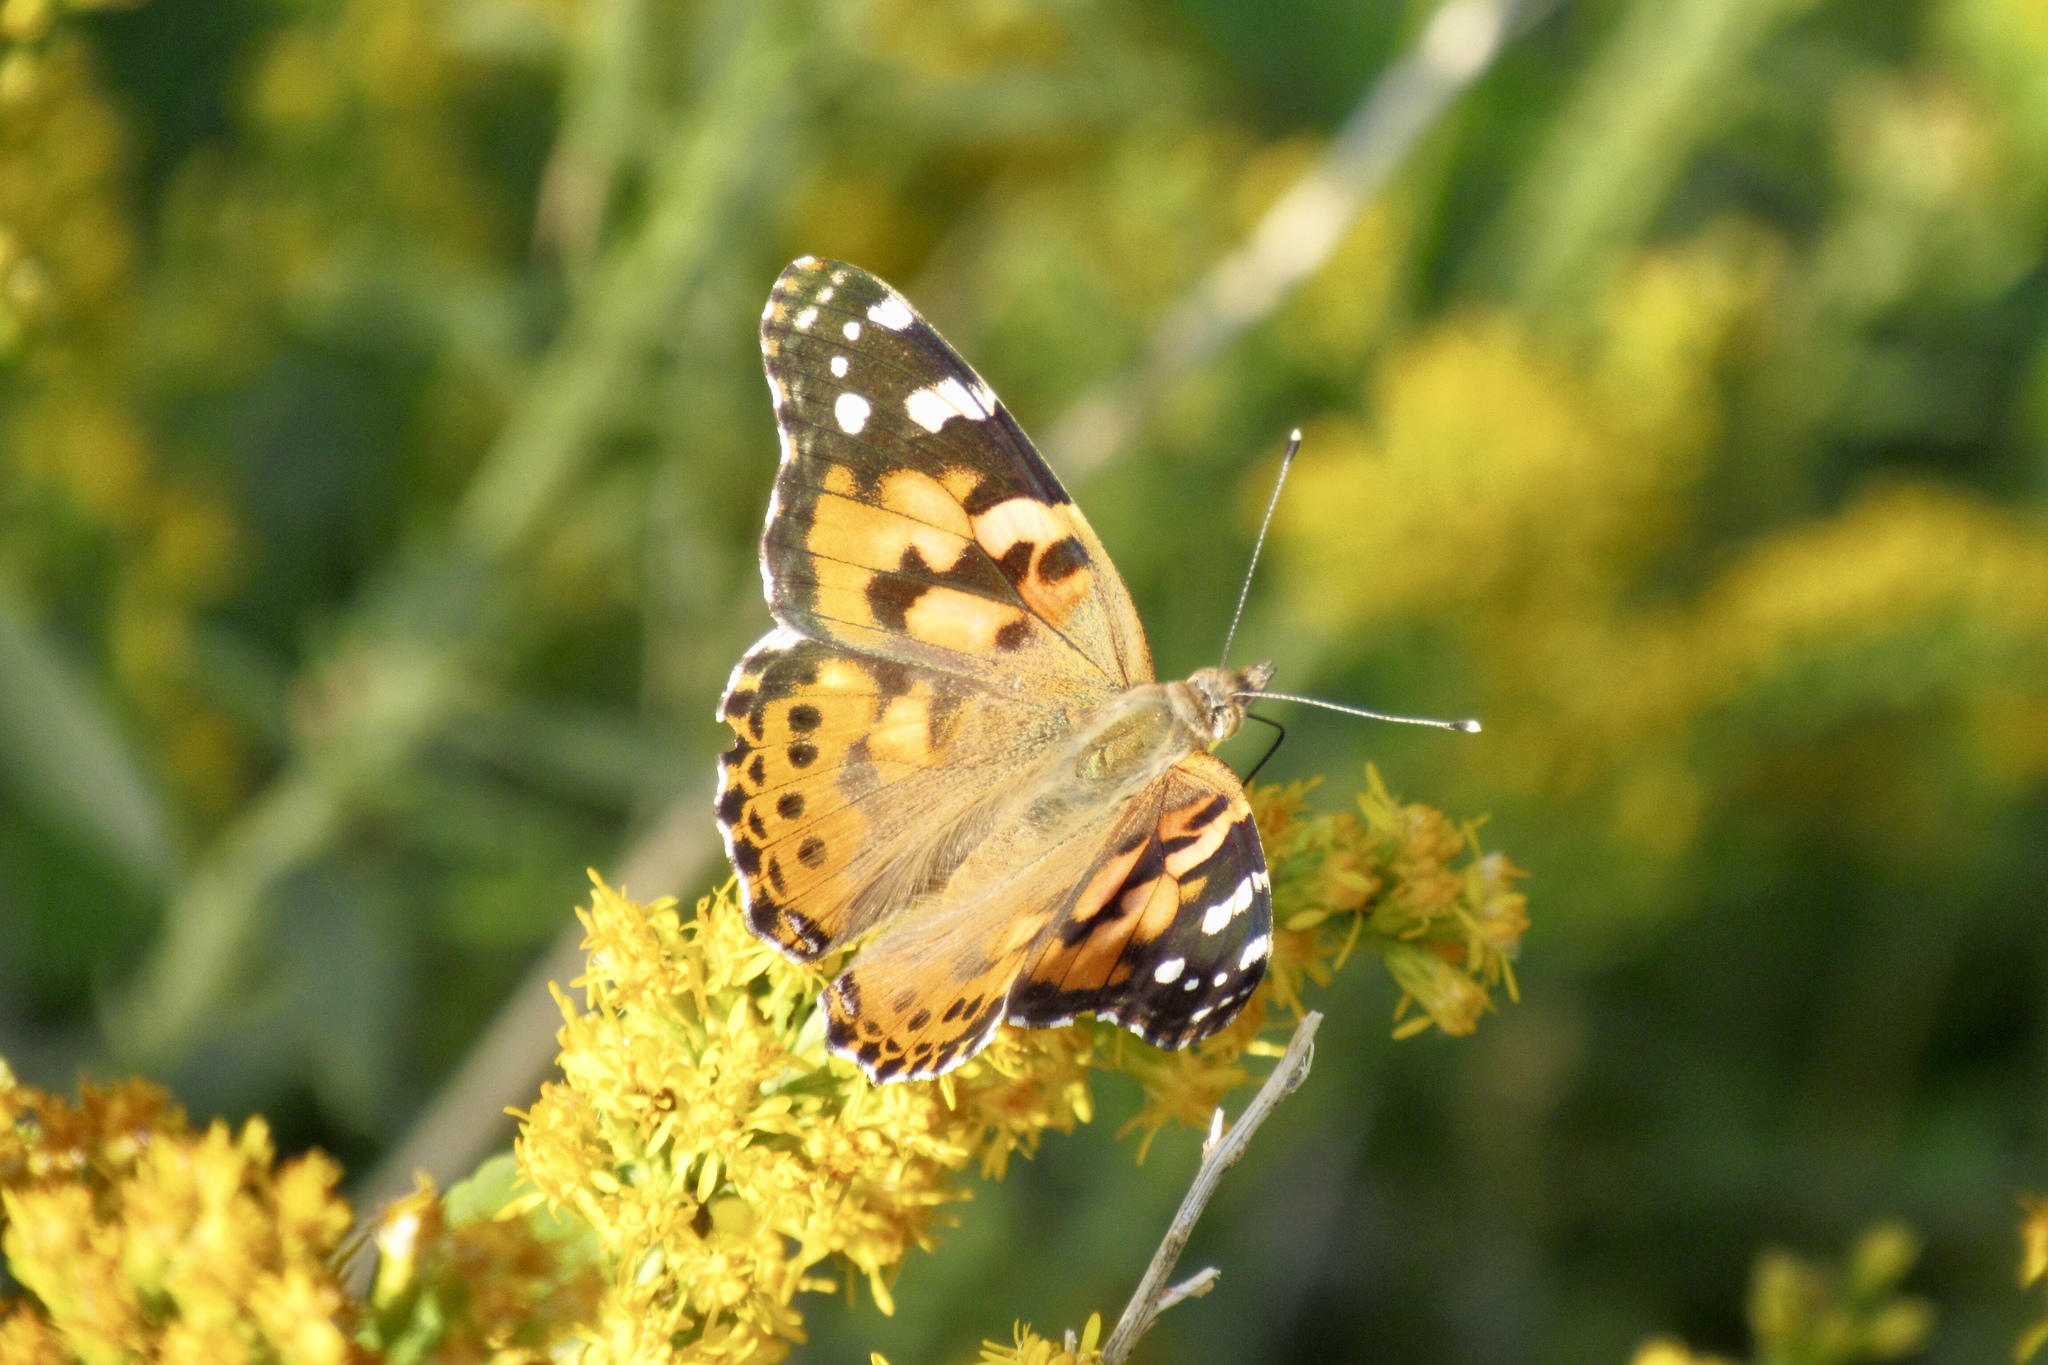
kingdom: Animalia
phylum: Arthropoda
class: Insecta
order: Lepidoptera
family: Nymphalidae
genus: Vanessa
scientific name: Vanessa cardui
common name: Painted lady
